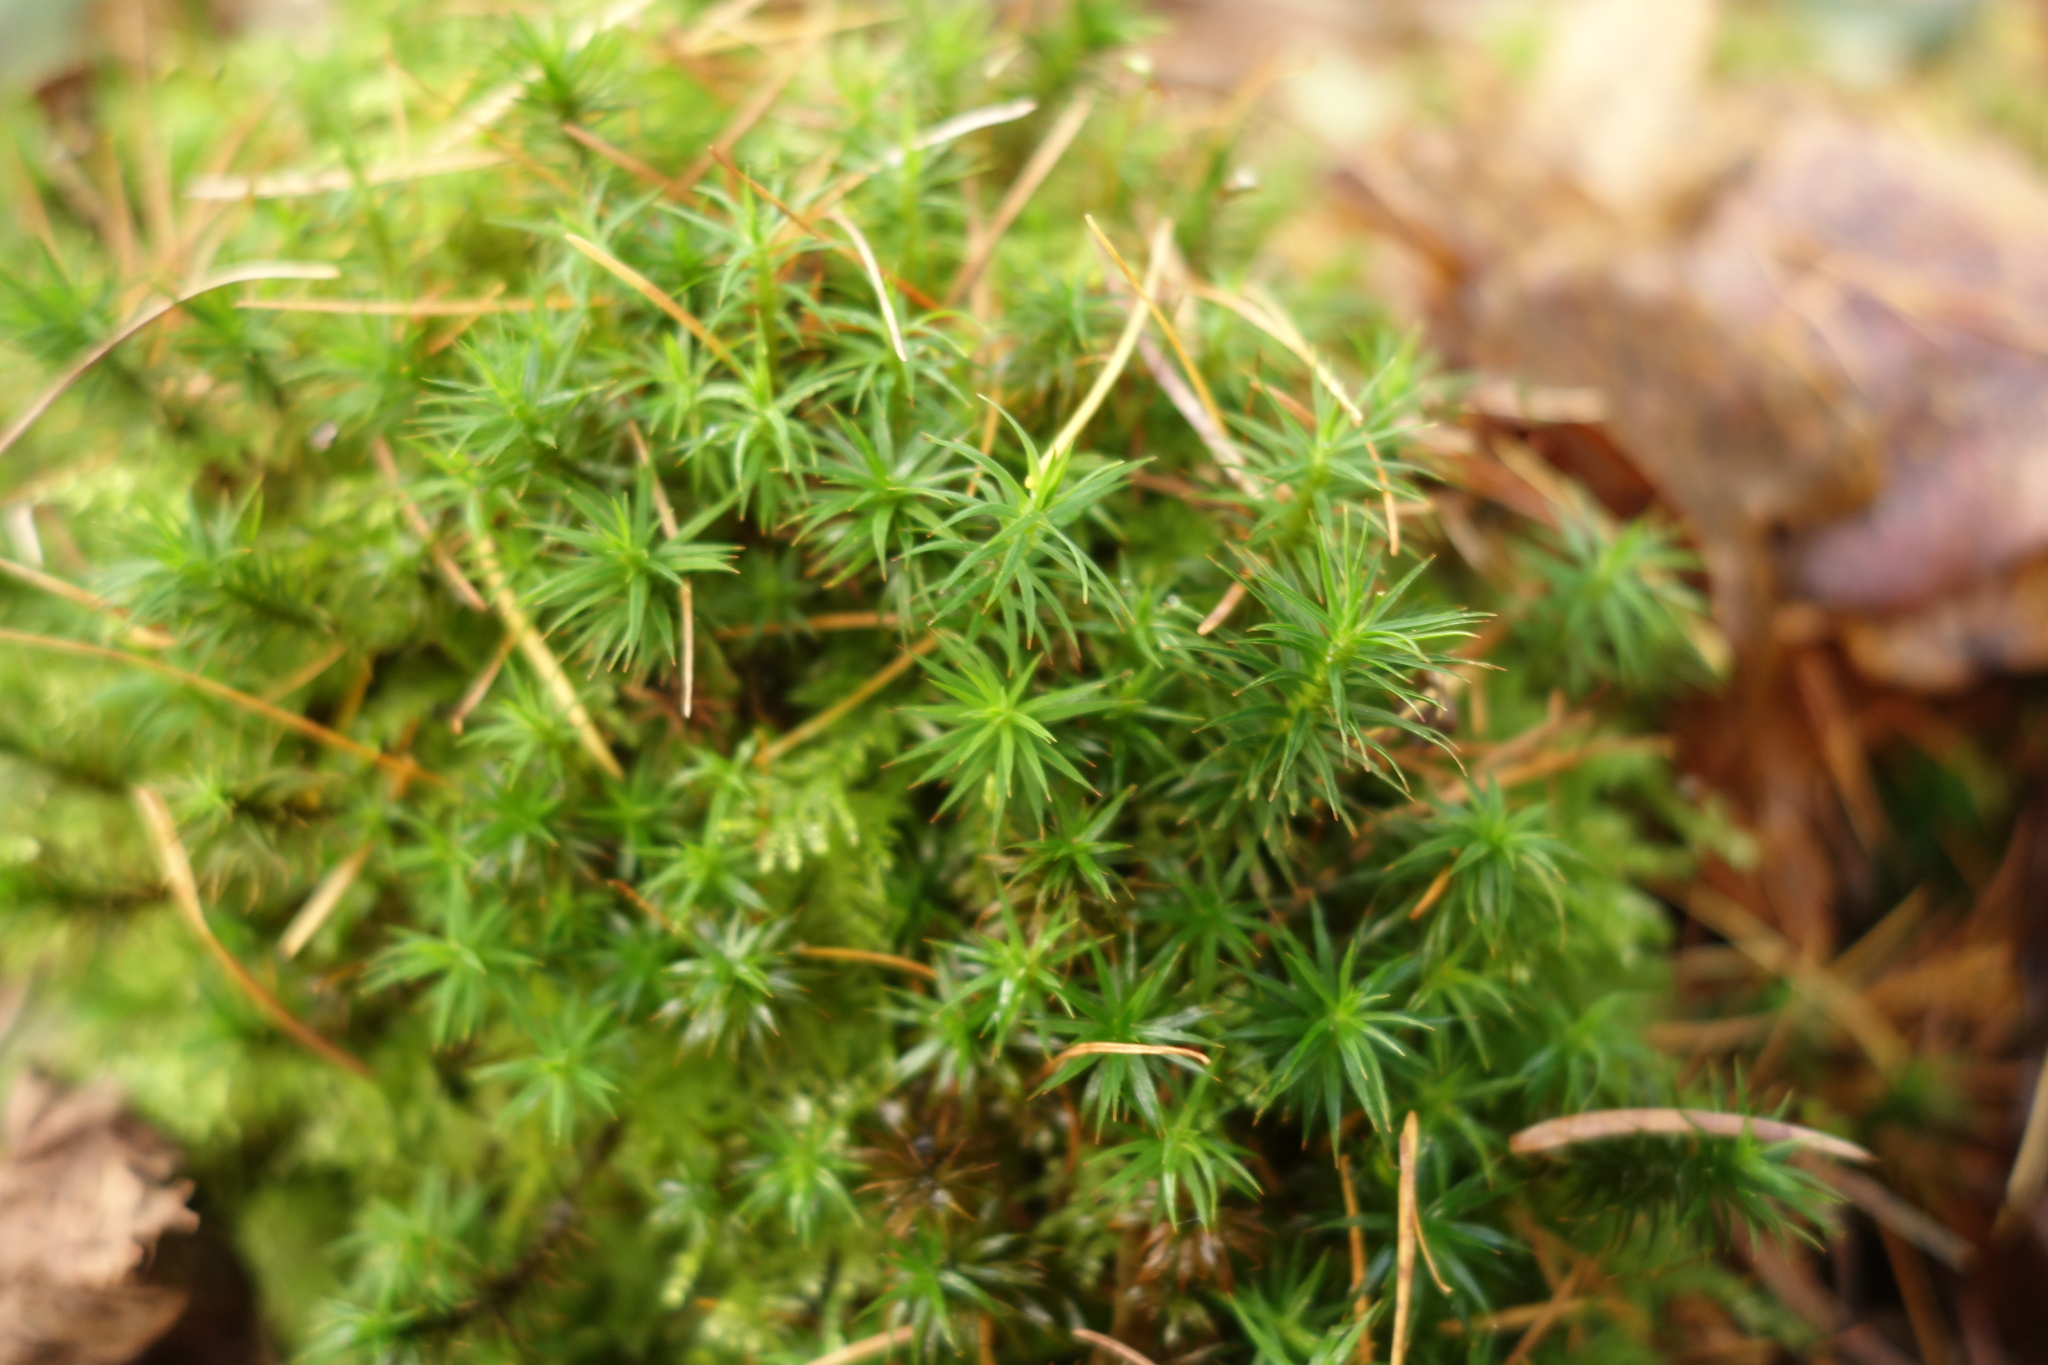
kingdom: Plantae
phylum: Bryophyta
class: Polytrichopsida
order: Polytrichales
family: Polytrichaceae
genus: Polytrichum
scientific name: Polytrichum formosum
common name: Bank haircap moss
